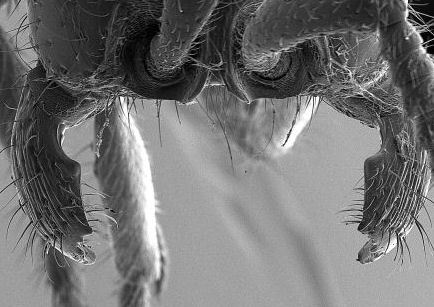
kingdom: Animalia
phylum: Arthropoda
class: Insecta
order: Hymenoptera
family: Formicidae
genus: Neivamyrmex
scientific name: Neivamyrmex kiowapache
